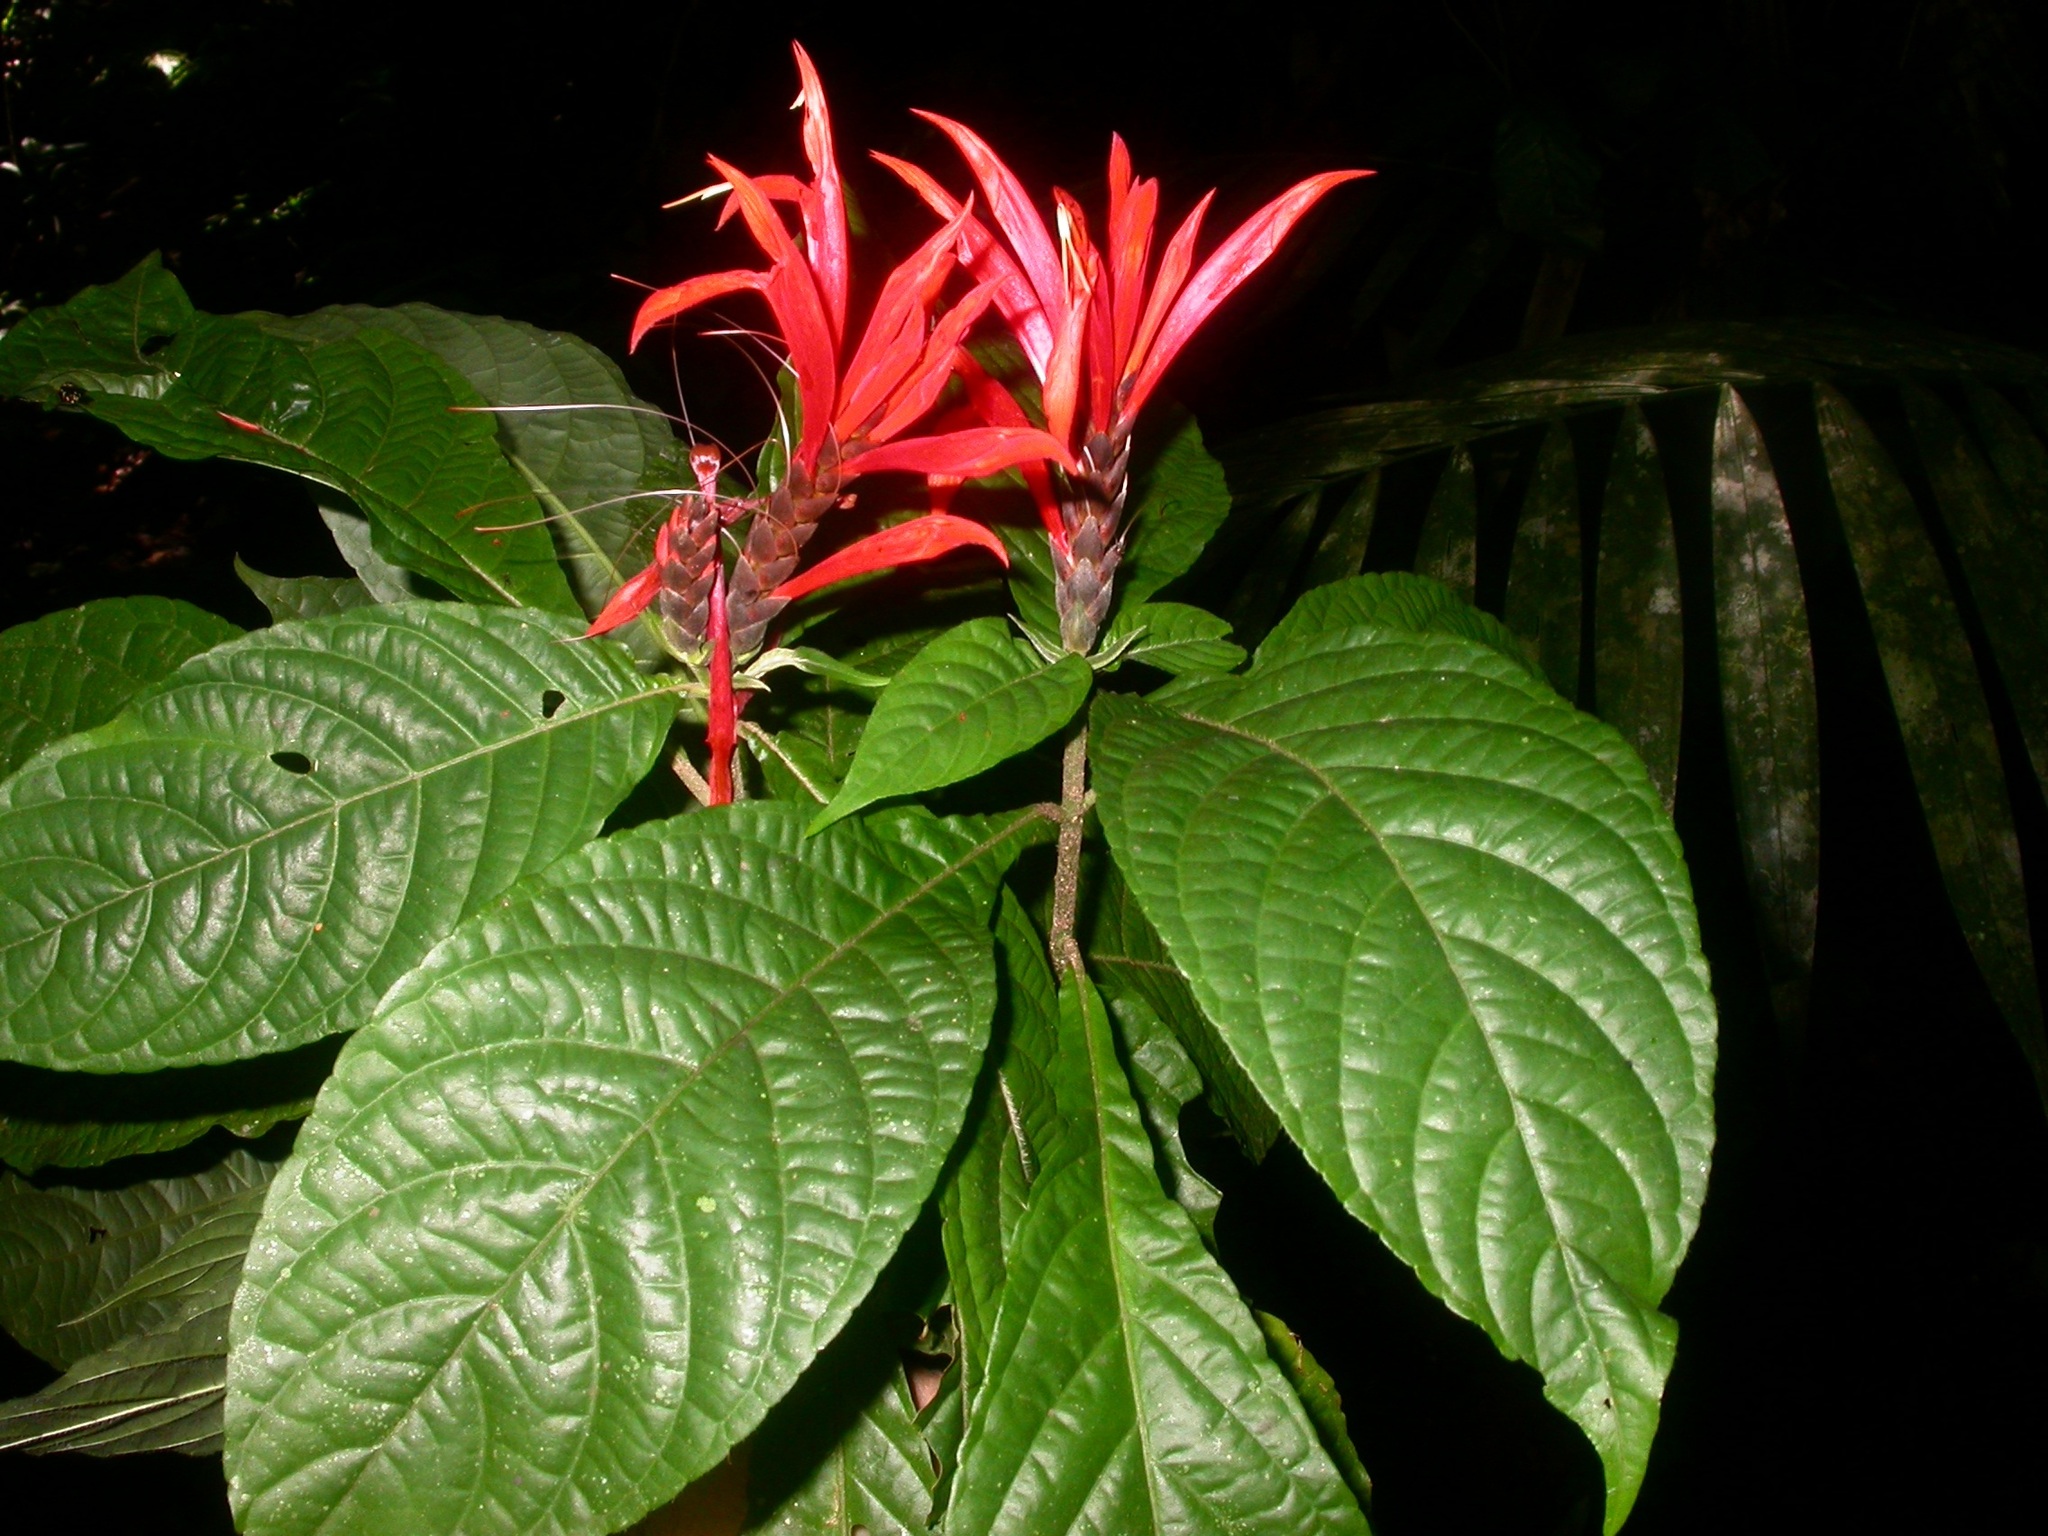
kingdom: Plantae
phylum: Tracheophyta
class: Magnoliopsida
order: Lamiales
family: Acanthaceae
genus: Aphelandra
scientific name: Aphelandra golfodulcensis
